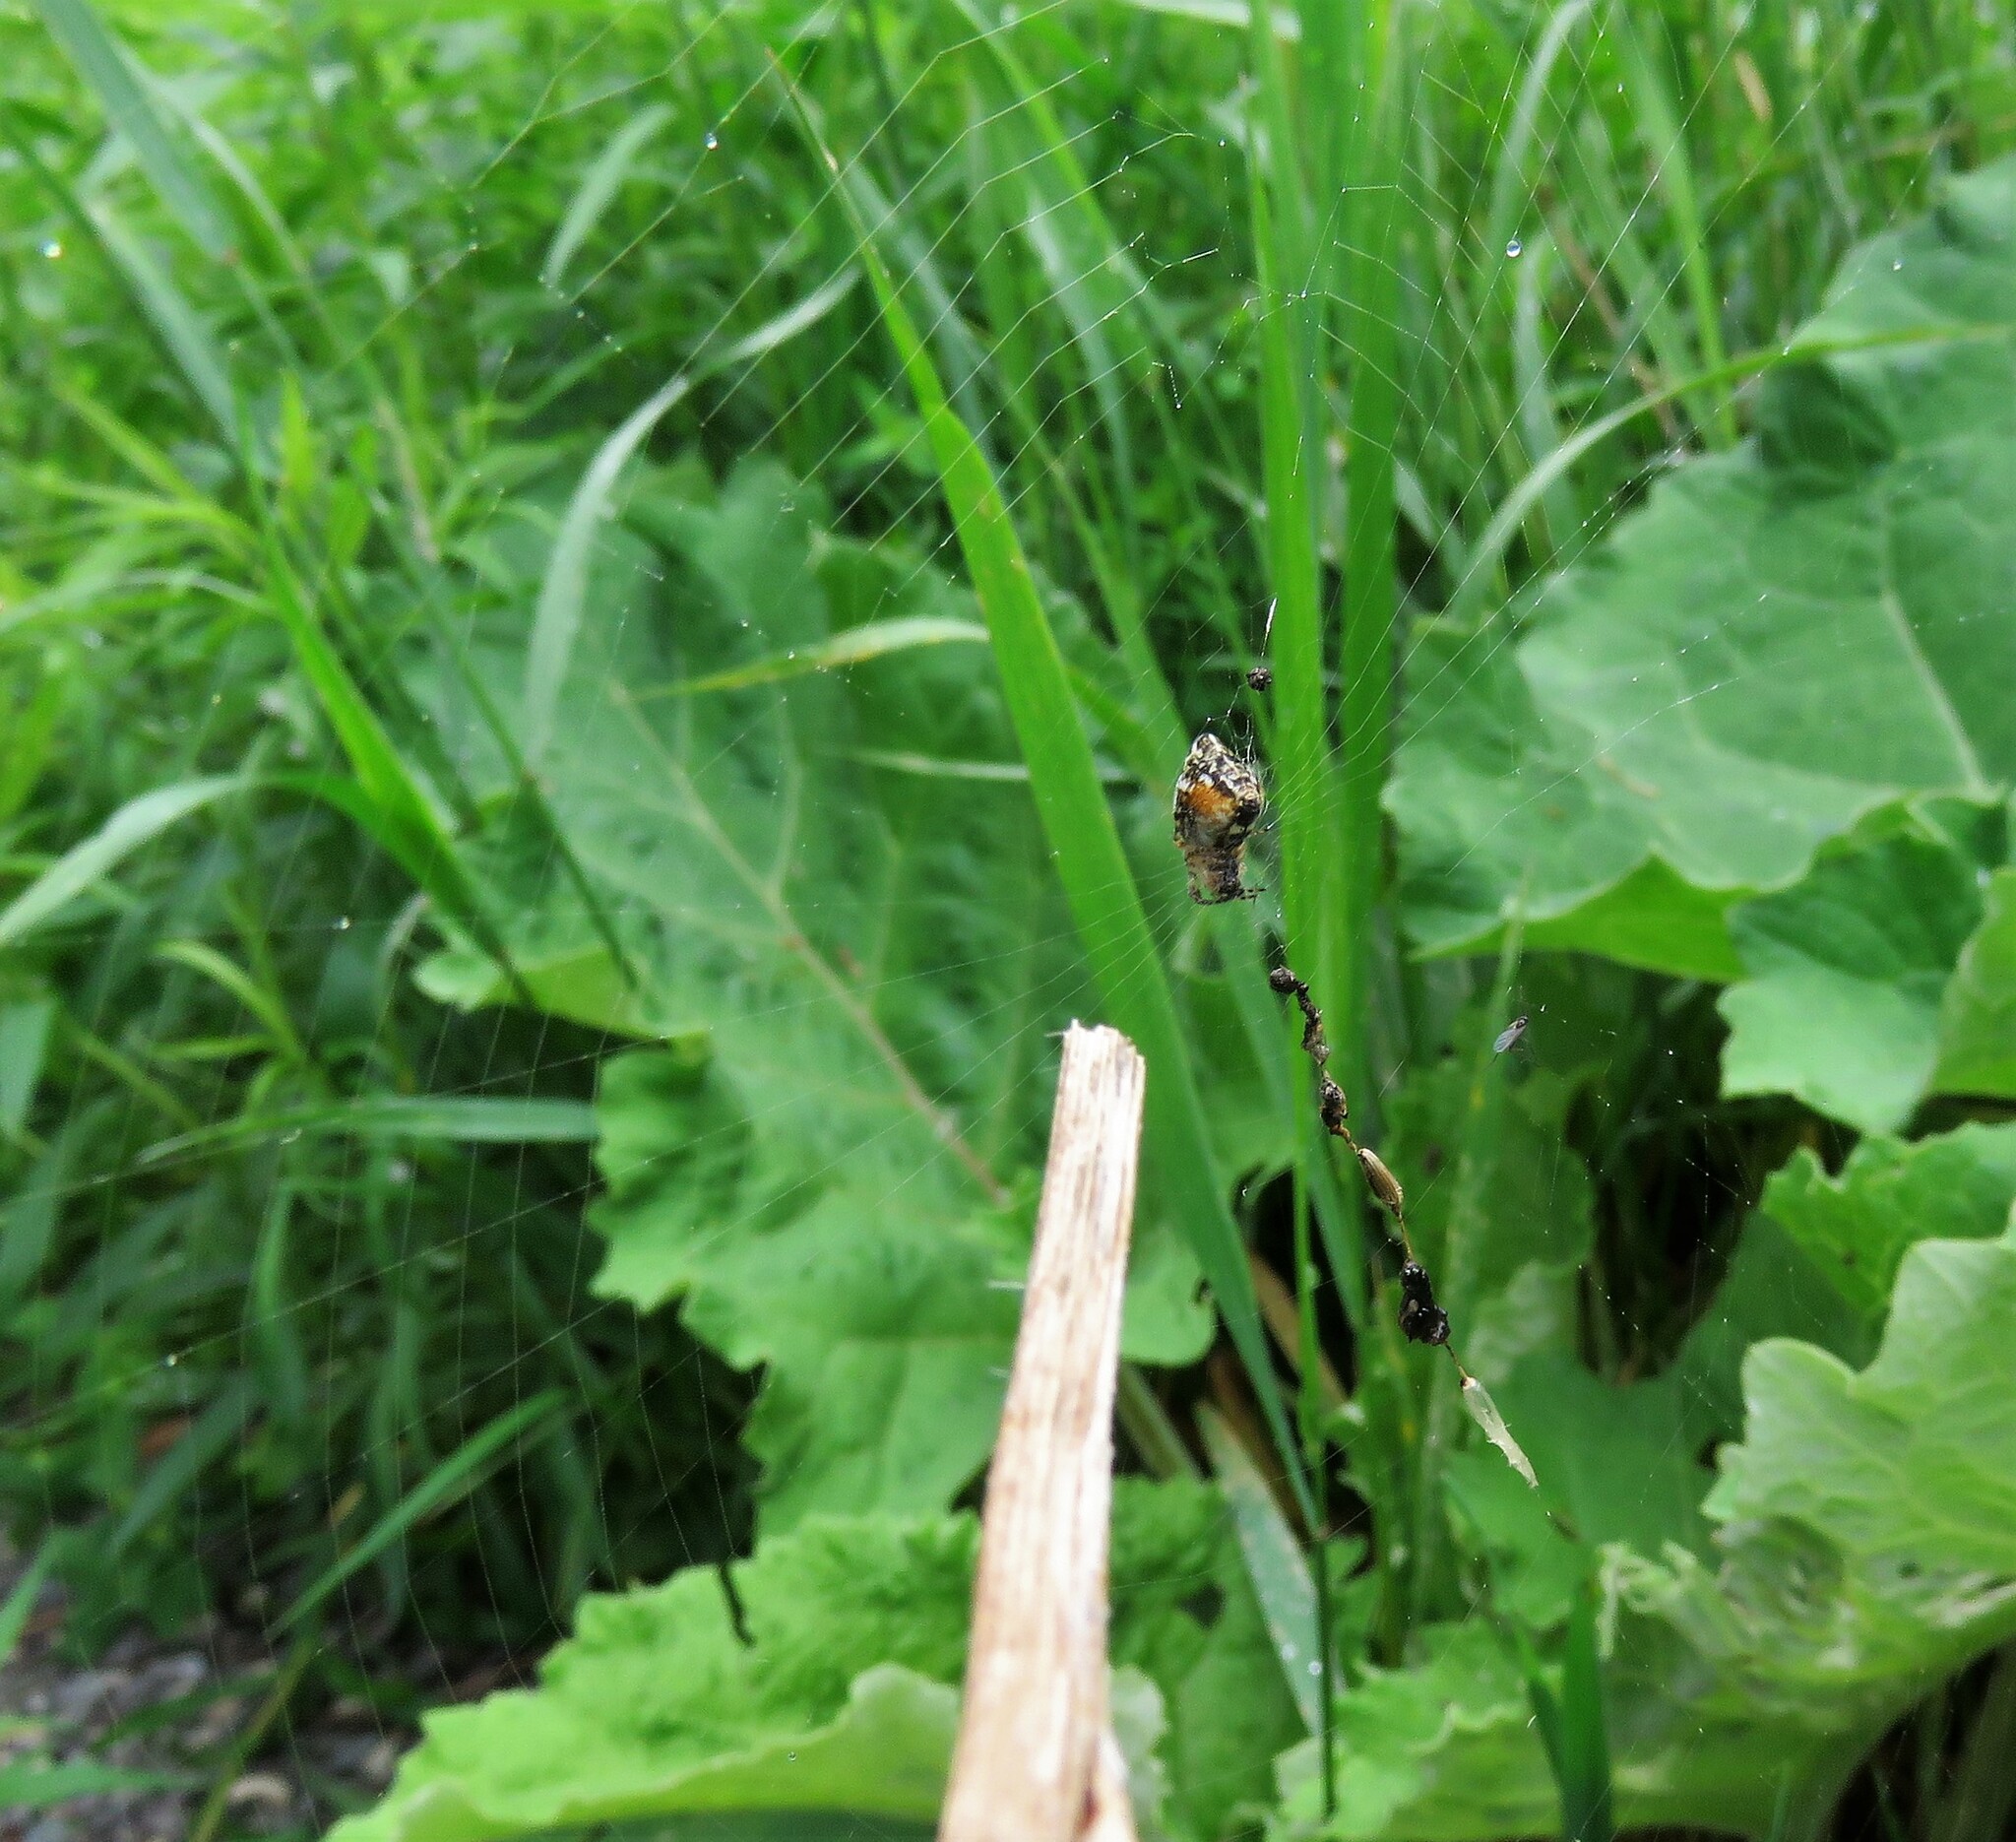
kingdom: Animalia
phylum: Arthropoda
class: Arachnida
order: Araneae
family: Araneidae
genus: Cyclosa
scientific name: Cyclosa conica
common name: Conical trashline orbweaver
